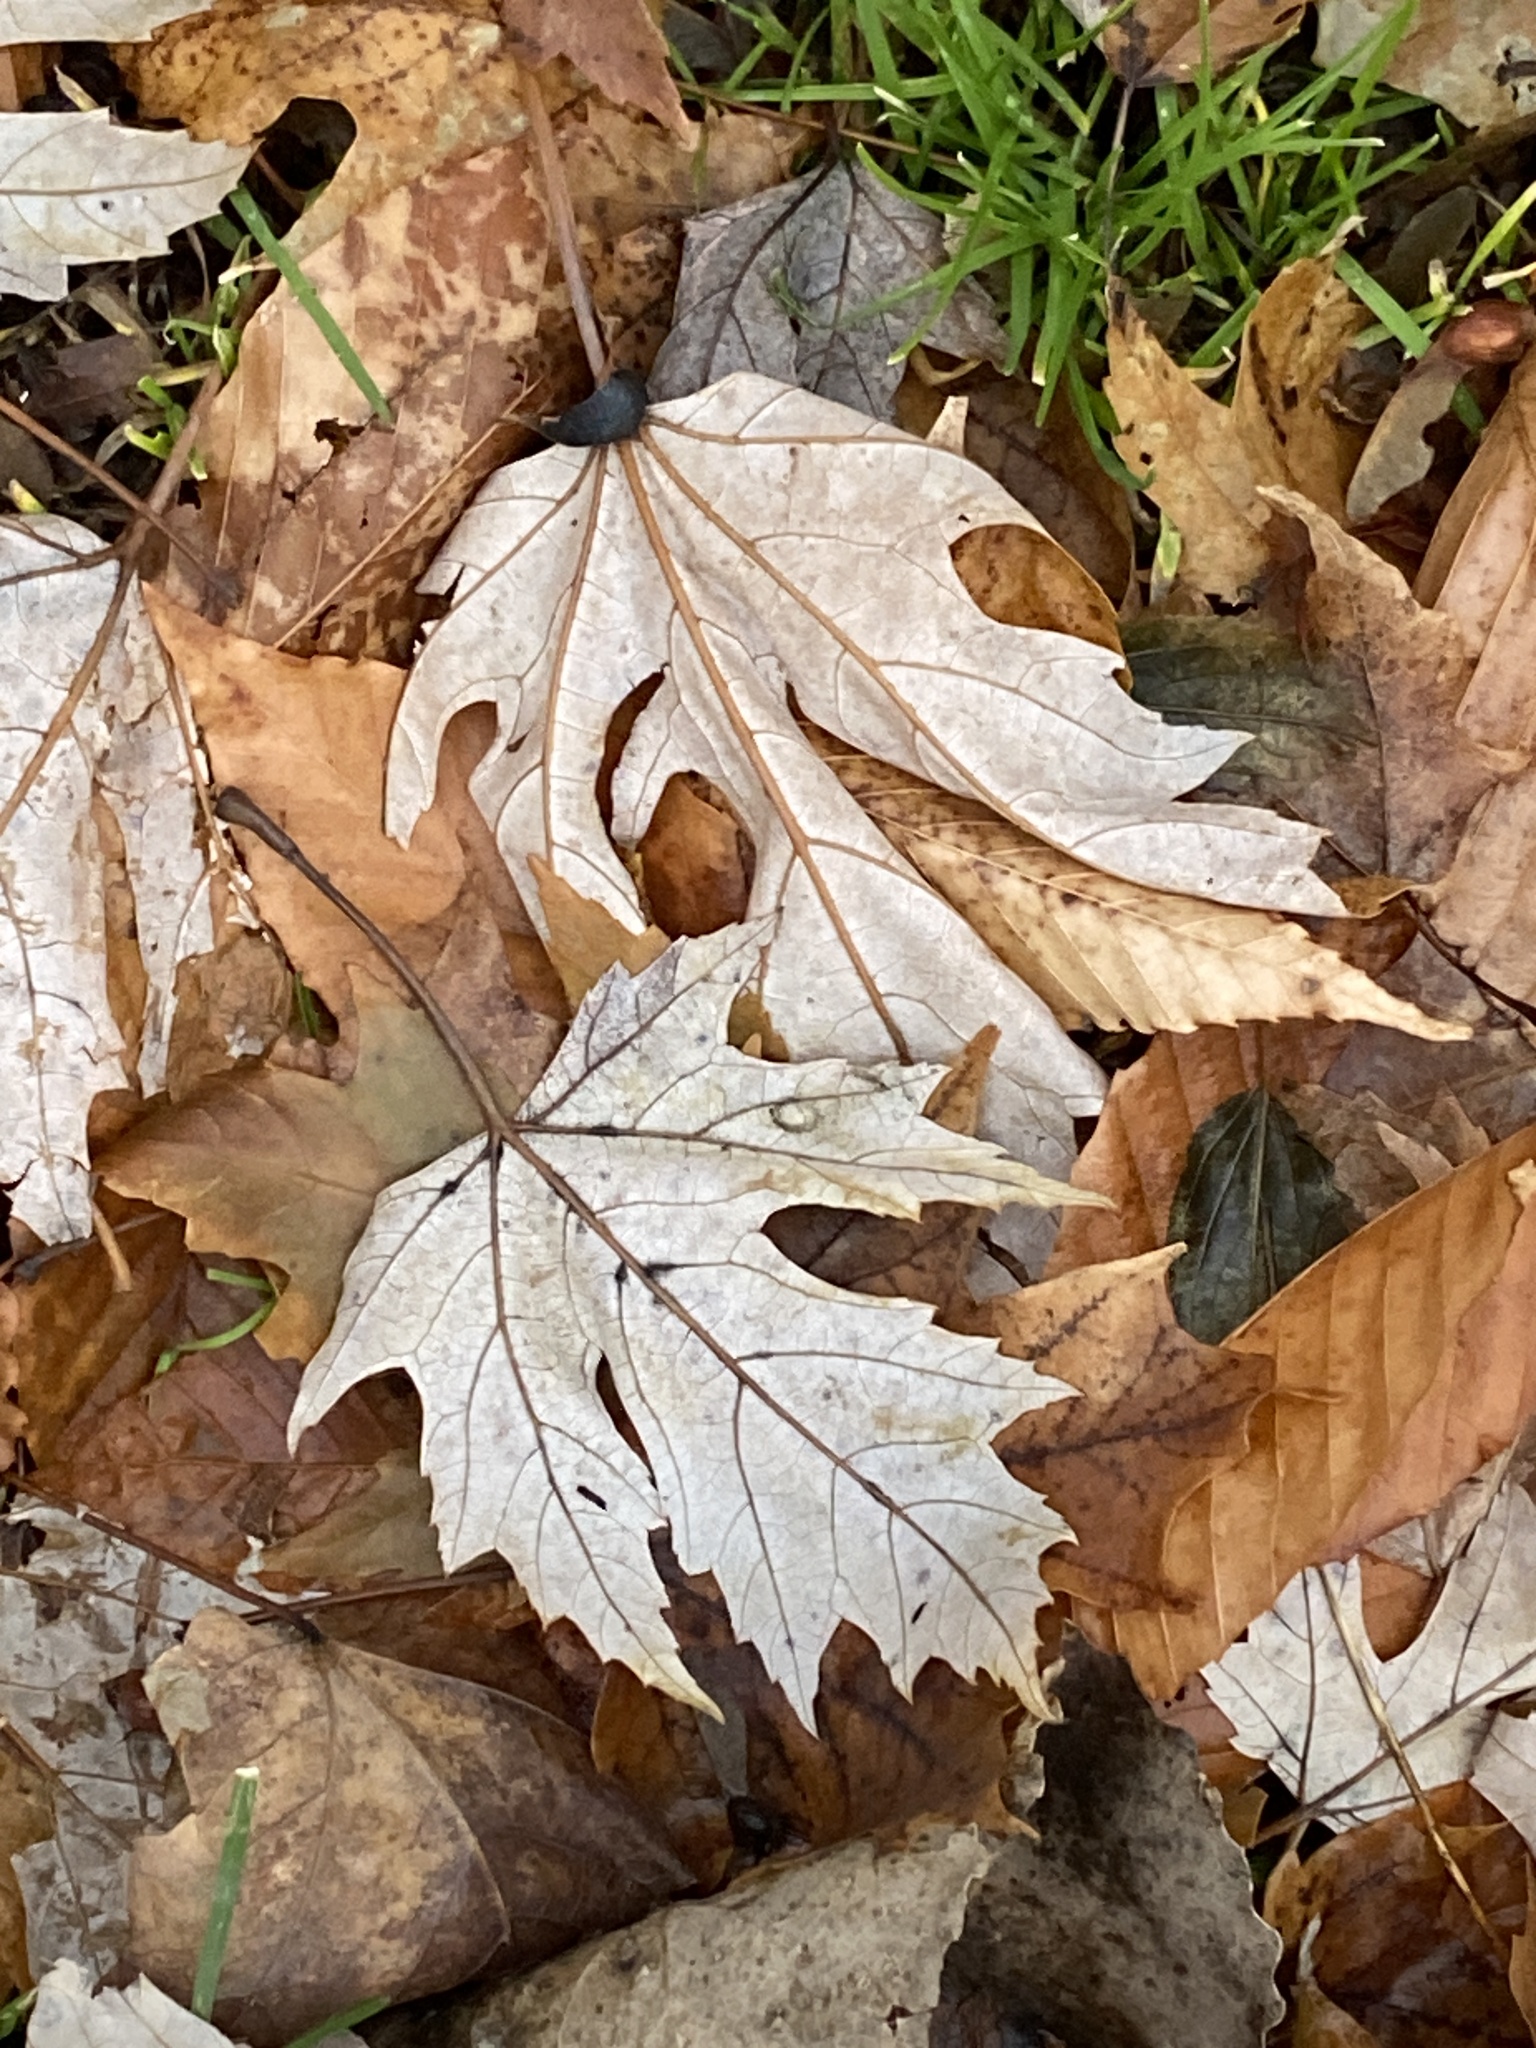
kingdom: Plantae
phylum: Tracheophyta
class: Magnoliopsida
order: Sapindales
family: Sapindaceae
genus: Acer
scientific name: Acer saccharinum
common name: Silver maple
